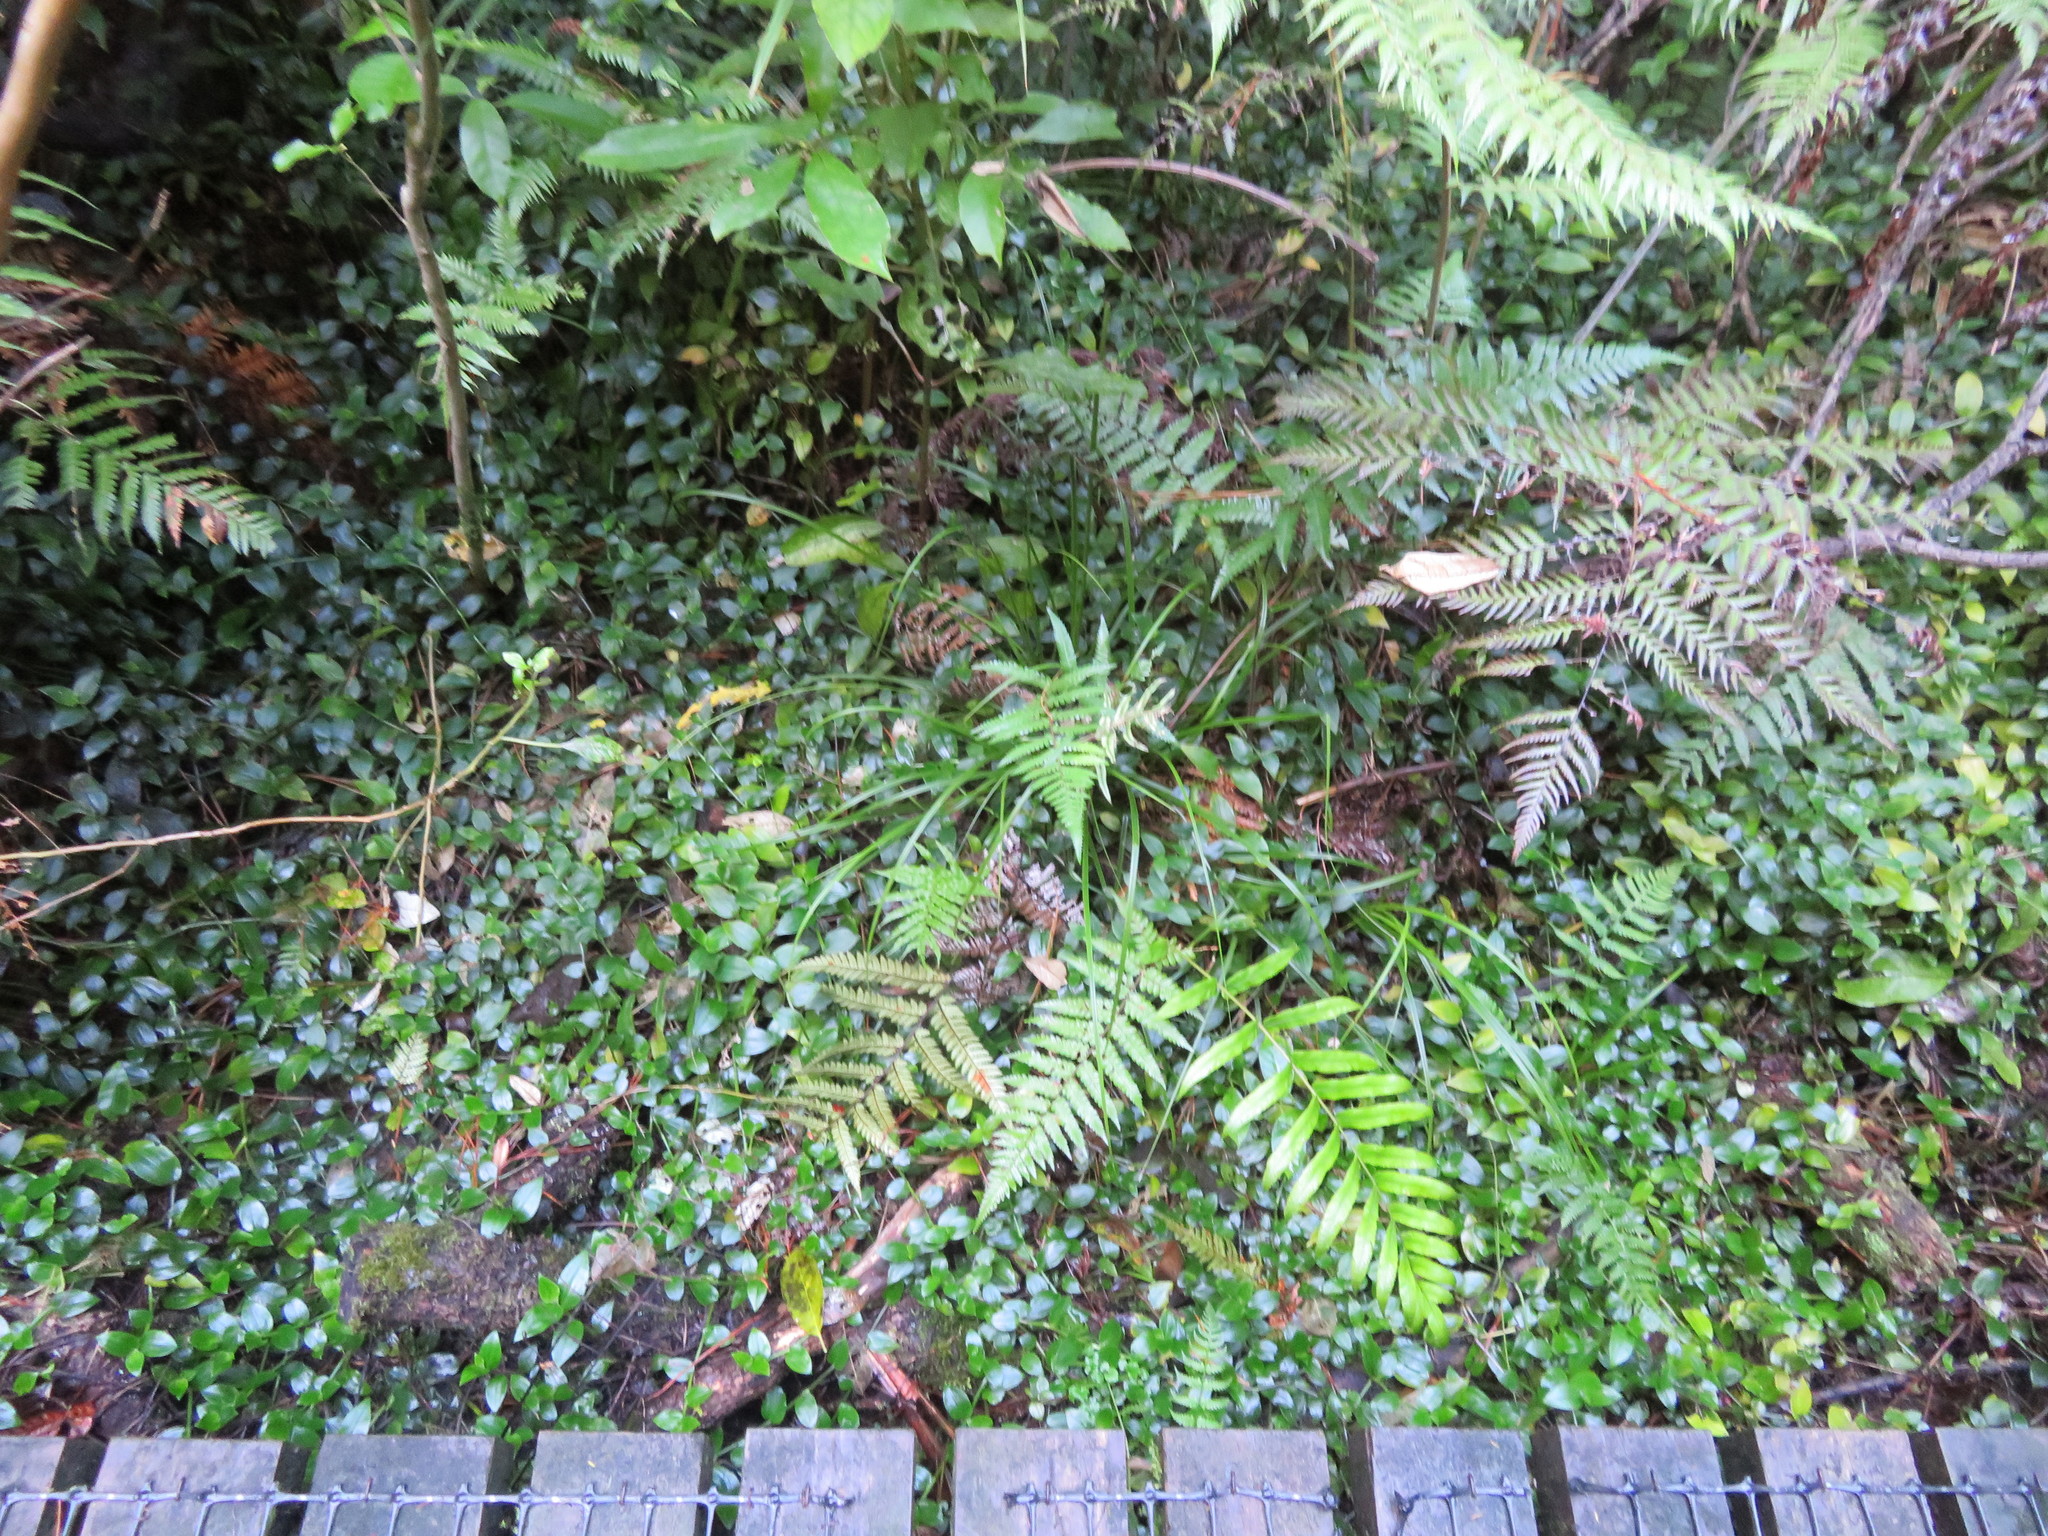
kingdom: Plantae
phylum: Tracheophyta
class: Liliopsida
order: Commelinales
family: Commelinaceae
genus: Tradescantia
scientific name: Tradescantia fluminensis
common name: Wandering-jew
